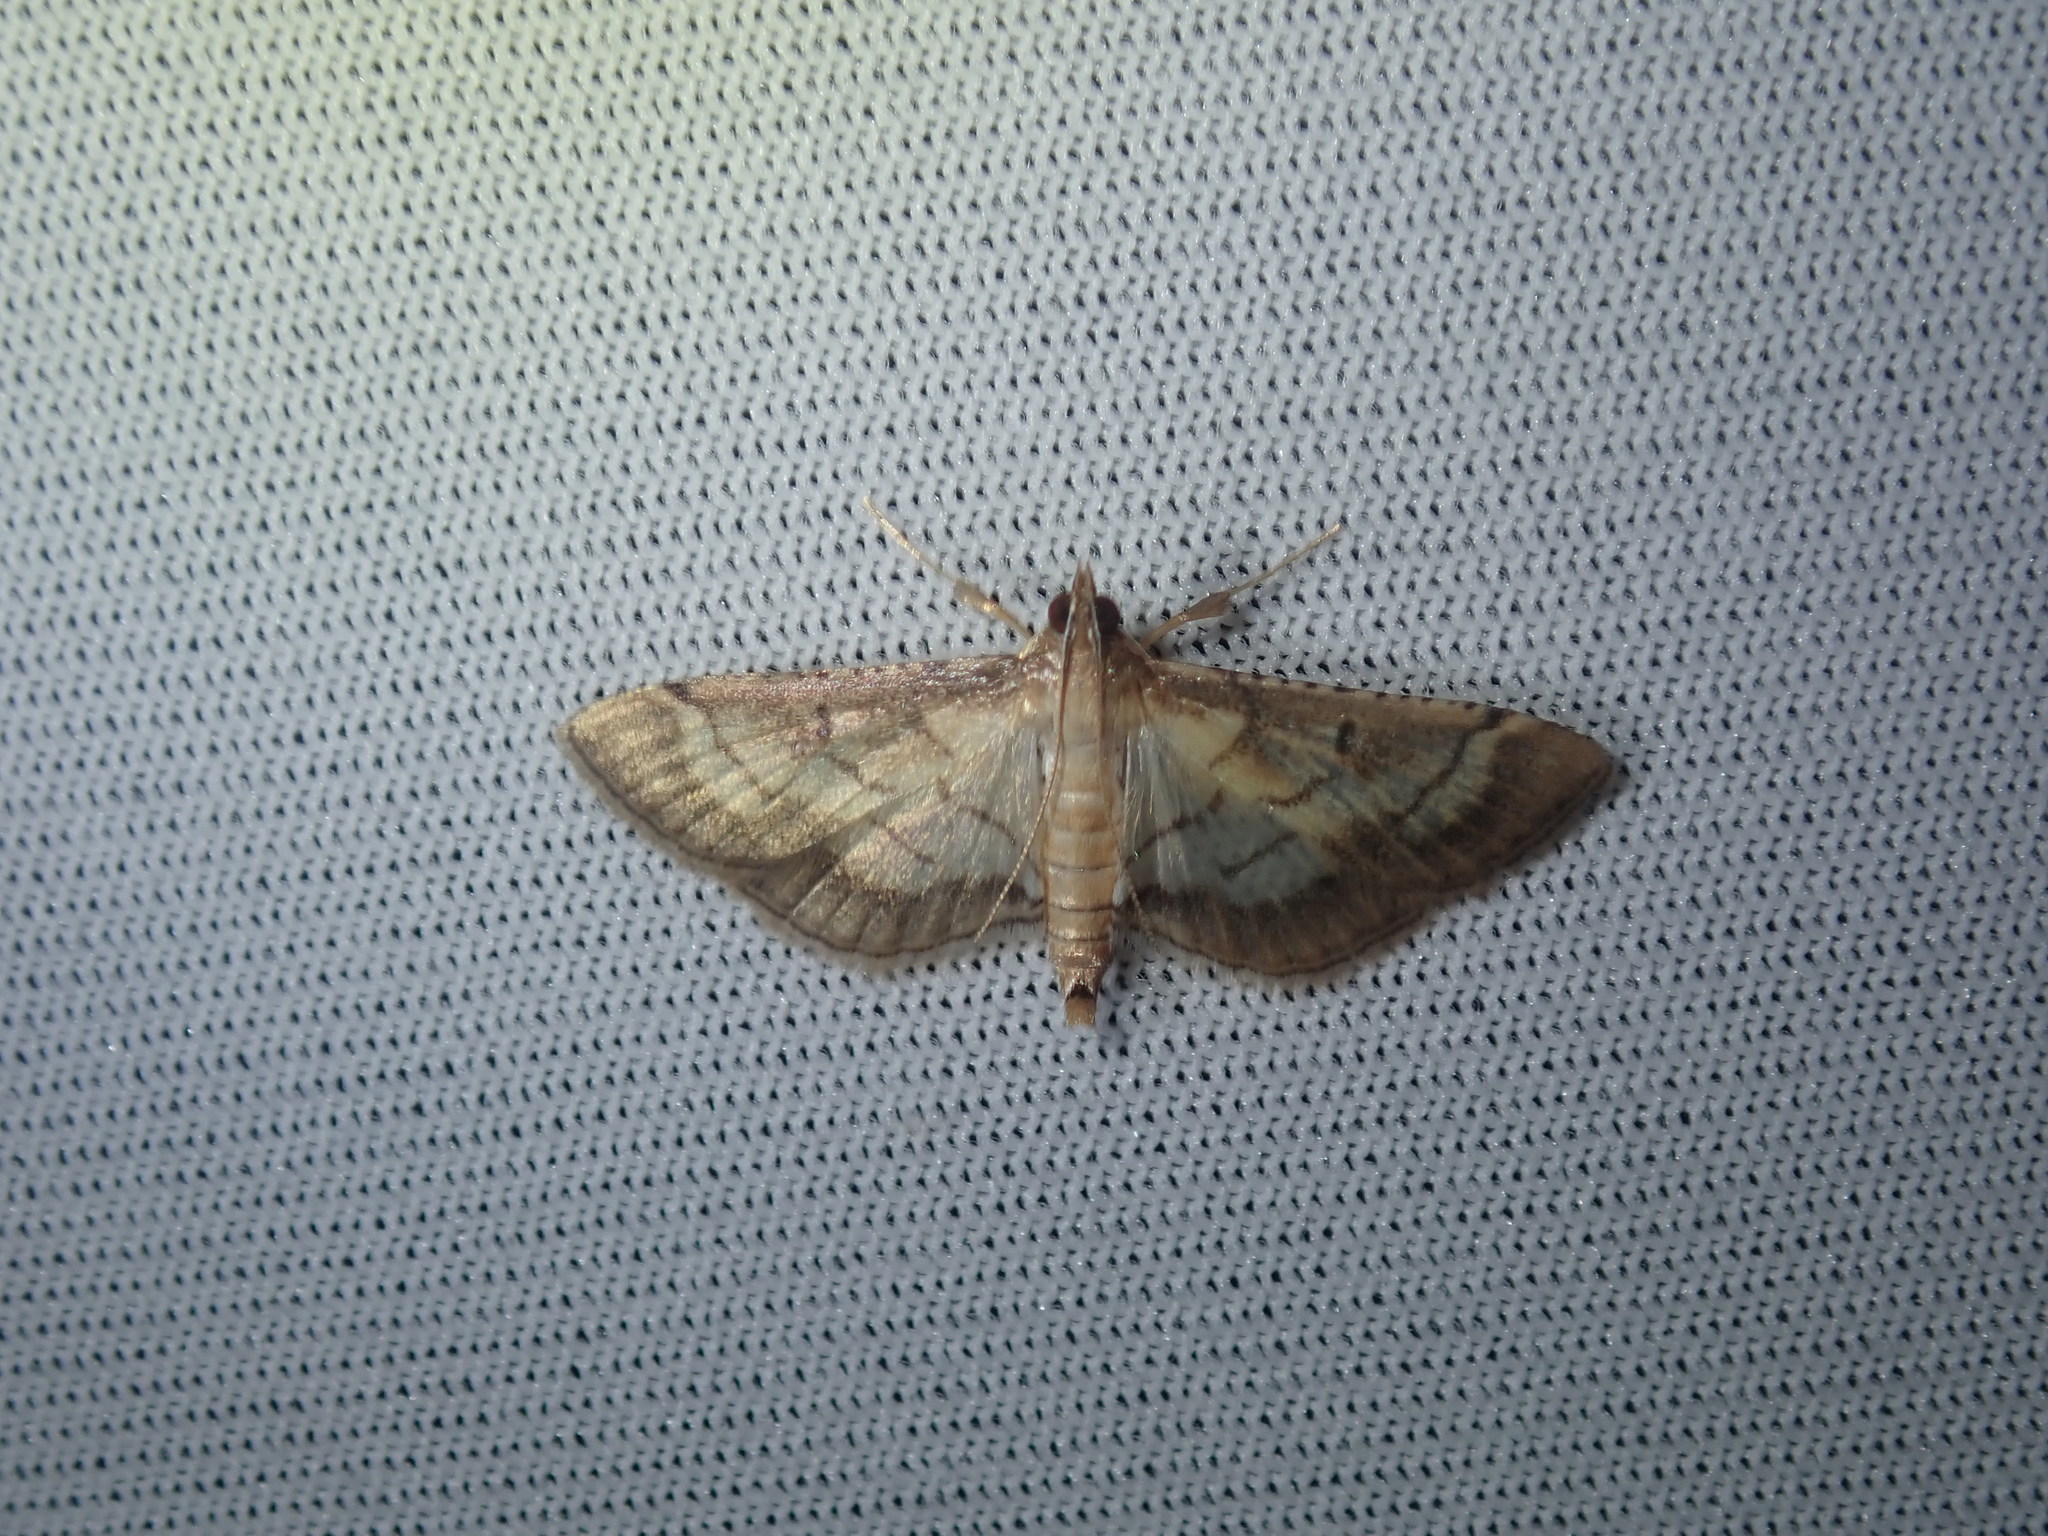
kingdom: Animalia
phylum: Arthropoda
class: Insecta
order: Lepidoptera
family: Crambidae
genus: Cnaphalocrocis
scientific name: Cnaphalocrocis poeyalis
